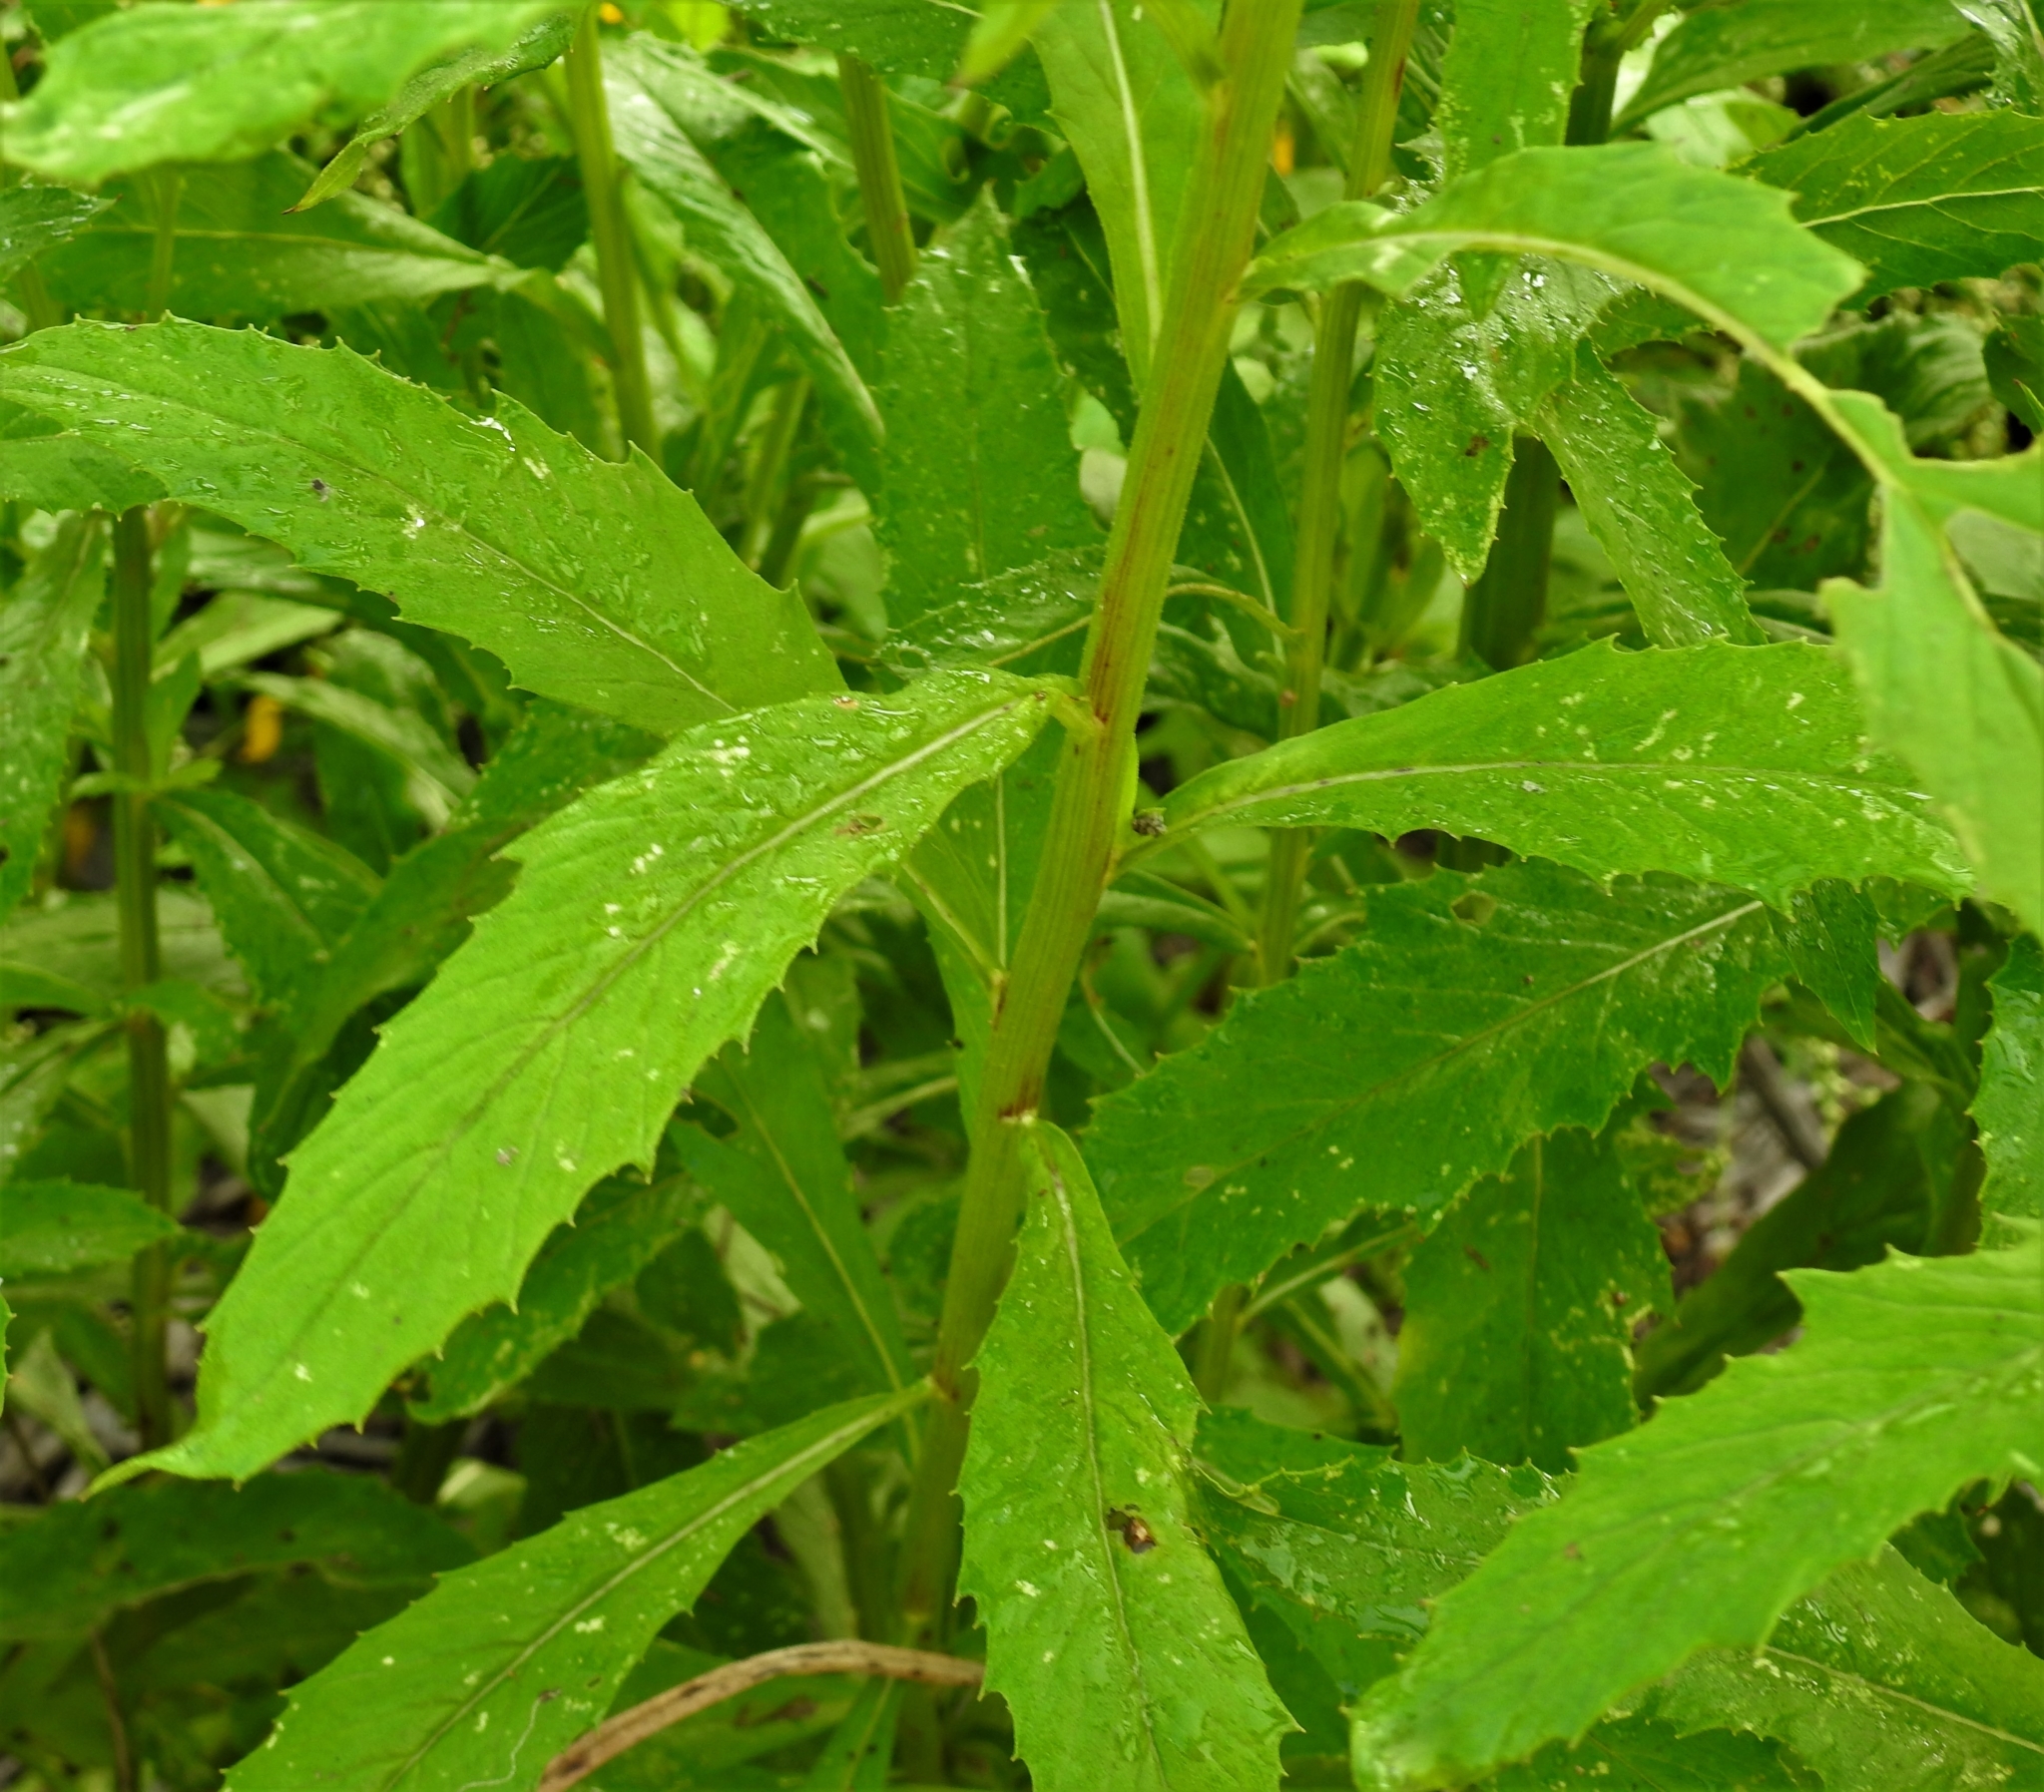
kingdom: Plantae
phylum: Tracheophyta
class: Magnoliopsida
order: Asterales
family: Asteraceae
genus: Erechtites
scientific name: Erechtites hieraciifolius
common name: American burnweed
